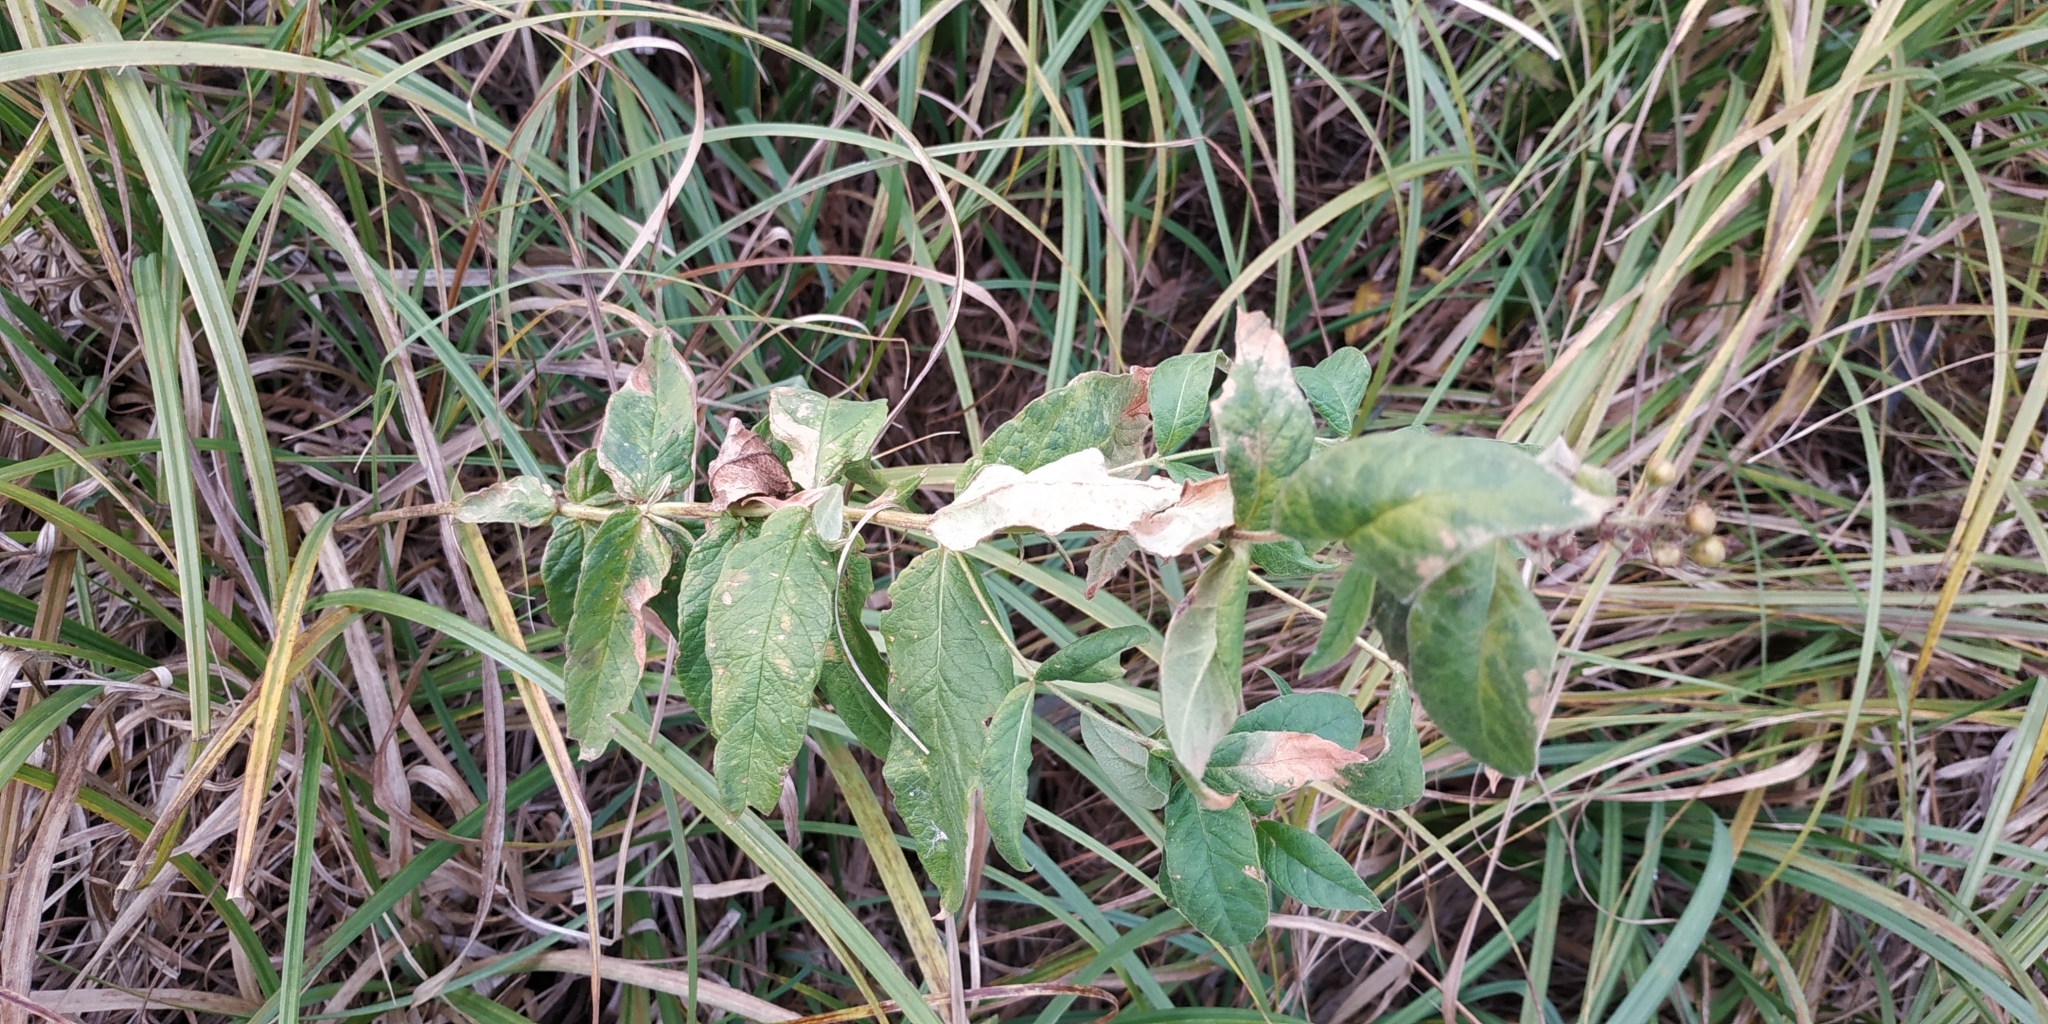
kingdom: Plantae
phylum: Tracheophyta
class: Magnoliopsida
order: Ericales
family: Primulaceae
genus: Lysimachia
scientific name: Lysimachia vulgaris
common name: Yellow loosestrife
